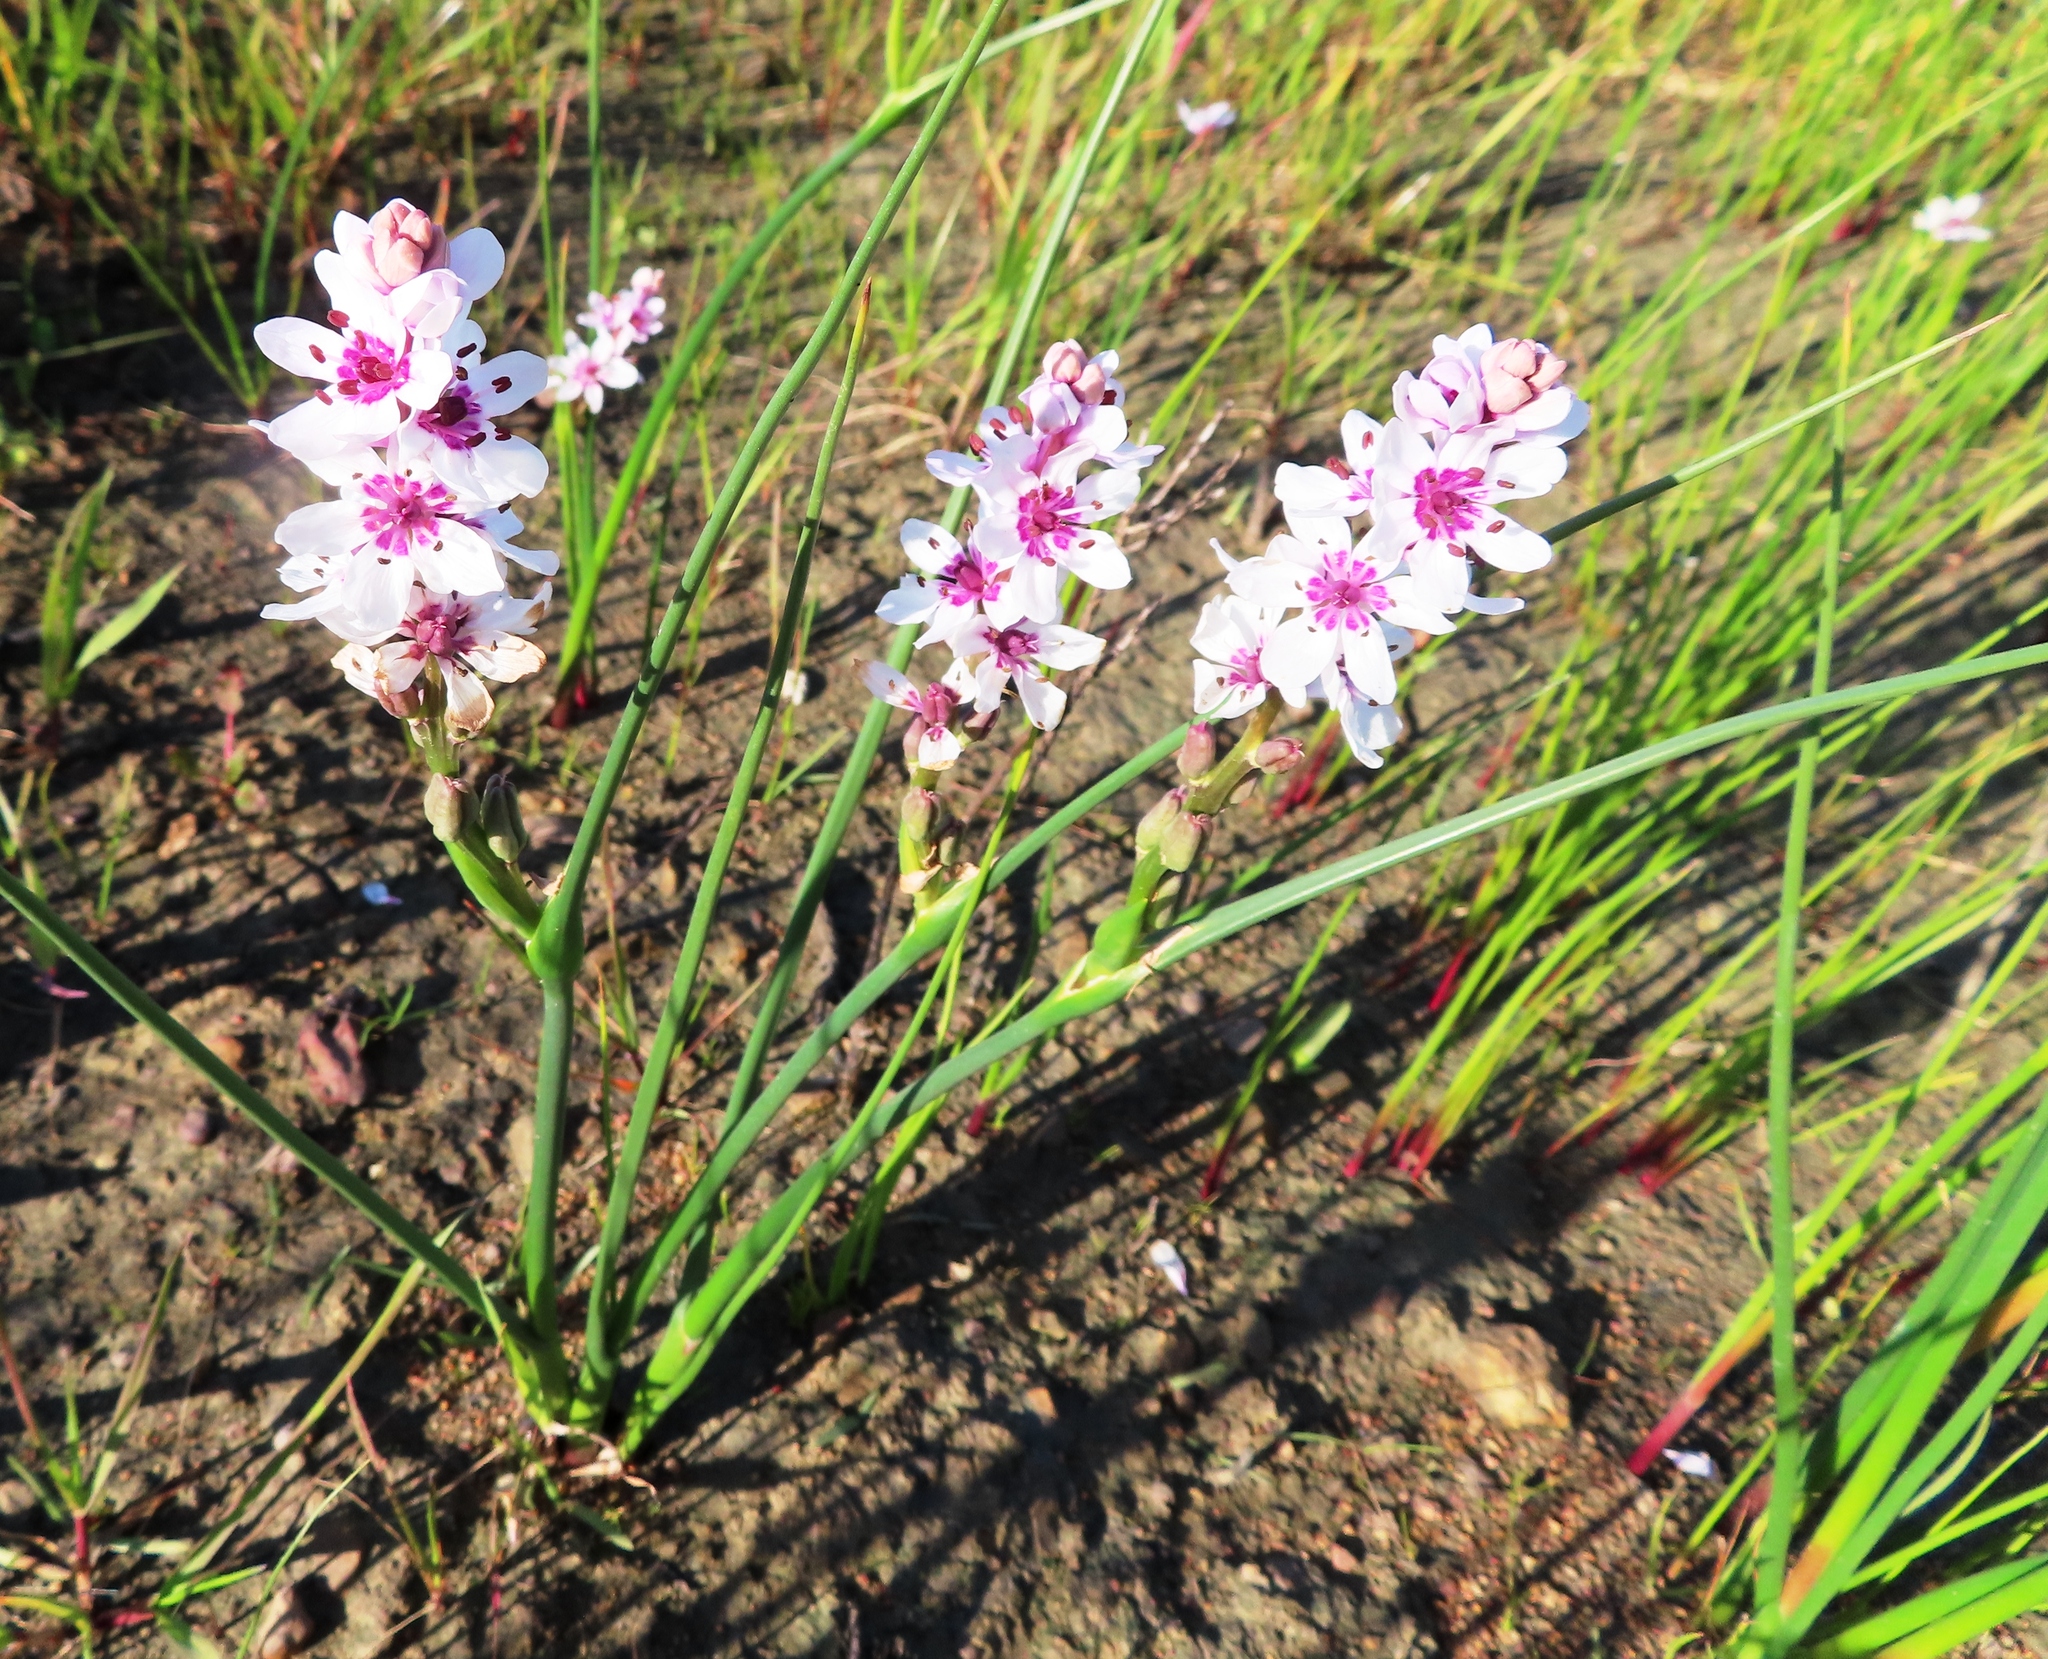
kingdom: Plantae
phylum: Tracheophyta
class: Liliopsida
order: Liliales
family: Colchicaceae
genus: Wurmbea
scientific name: Wurmbea stricta
